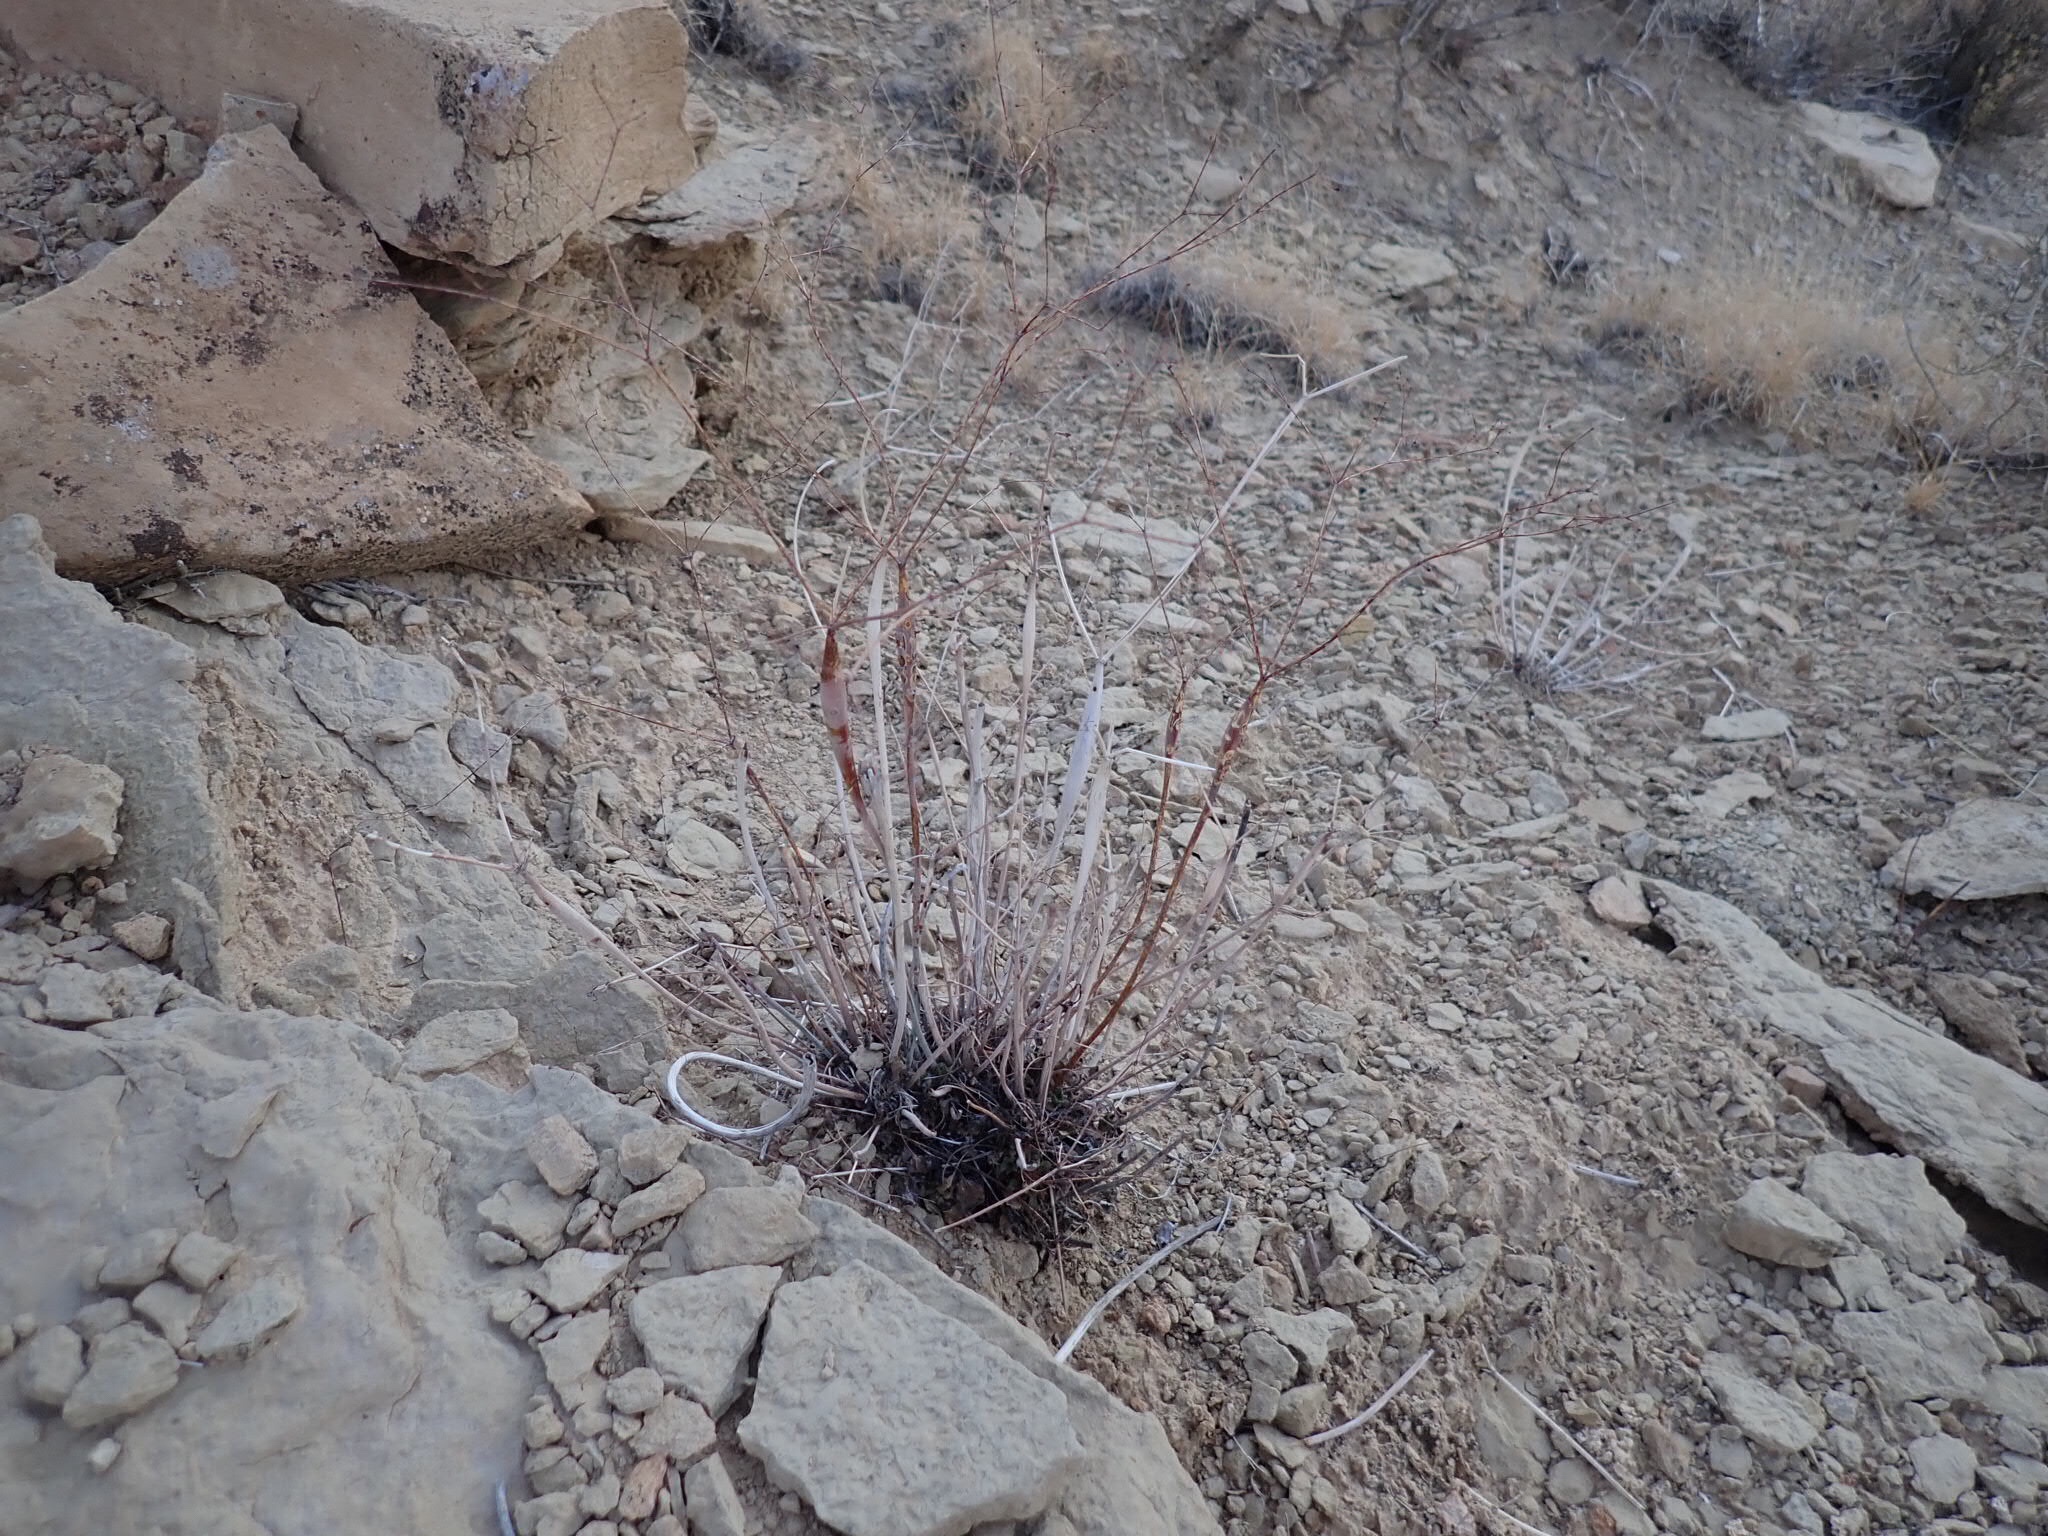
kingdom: Plantae
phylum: Tracheophyta
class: Magnoliopsida
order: Caryophyllales
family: Polygonaceae
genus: Eriogonum
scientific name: Eriogonum inflatum
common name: Desert trumpet
